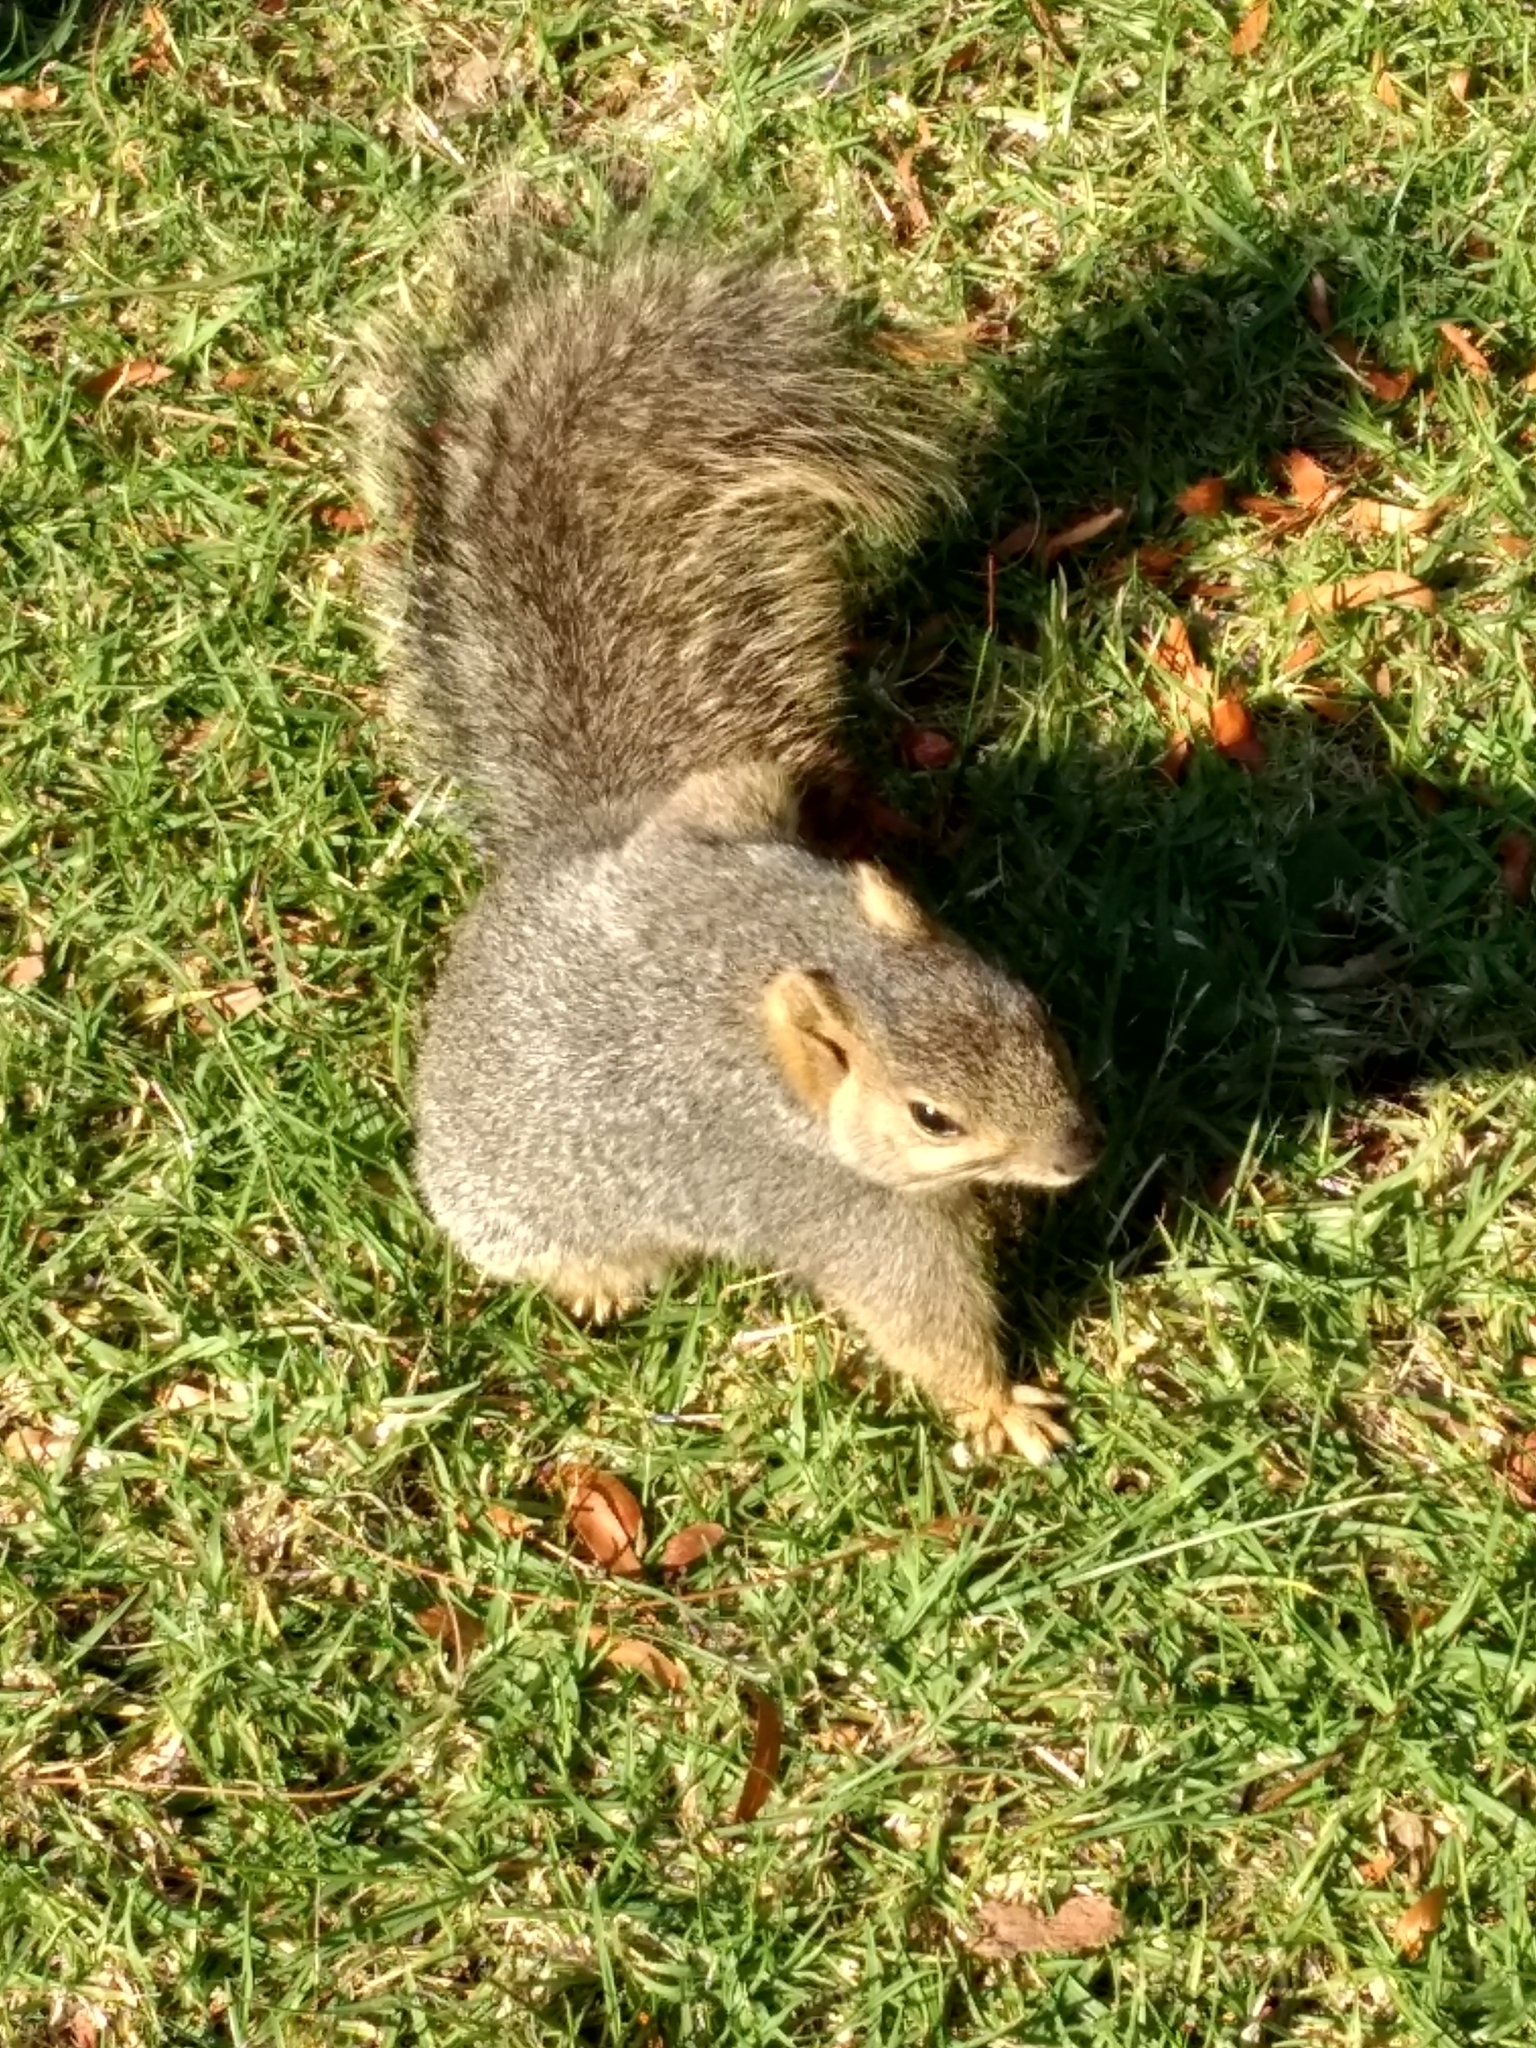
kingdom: Animalia
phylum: Chordata
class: Mammalia
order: Rodentia
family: Sciuridae
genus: Sciurus
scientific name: Sciurus niger
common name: Fox squirrel
